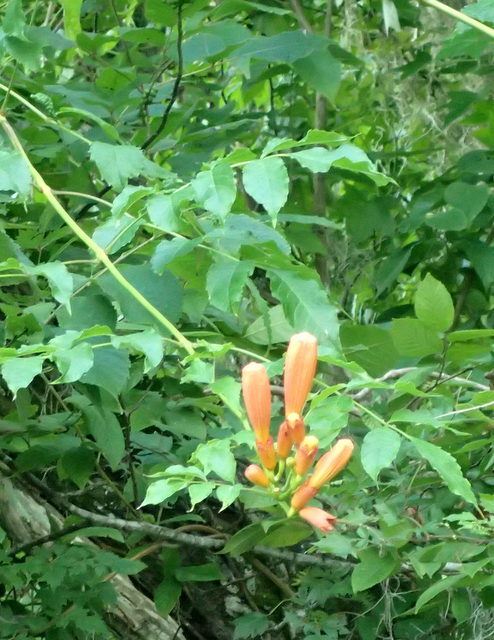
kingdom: Plantae
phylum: Tracheophyta
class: Magnoliopsida
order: Lamiales
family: Bignoniaceae
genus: Campsis
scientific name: Campsis radicans
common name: Trumpet-creeper
